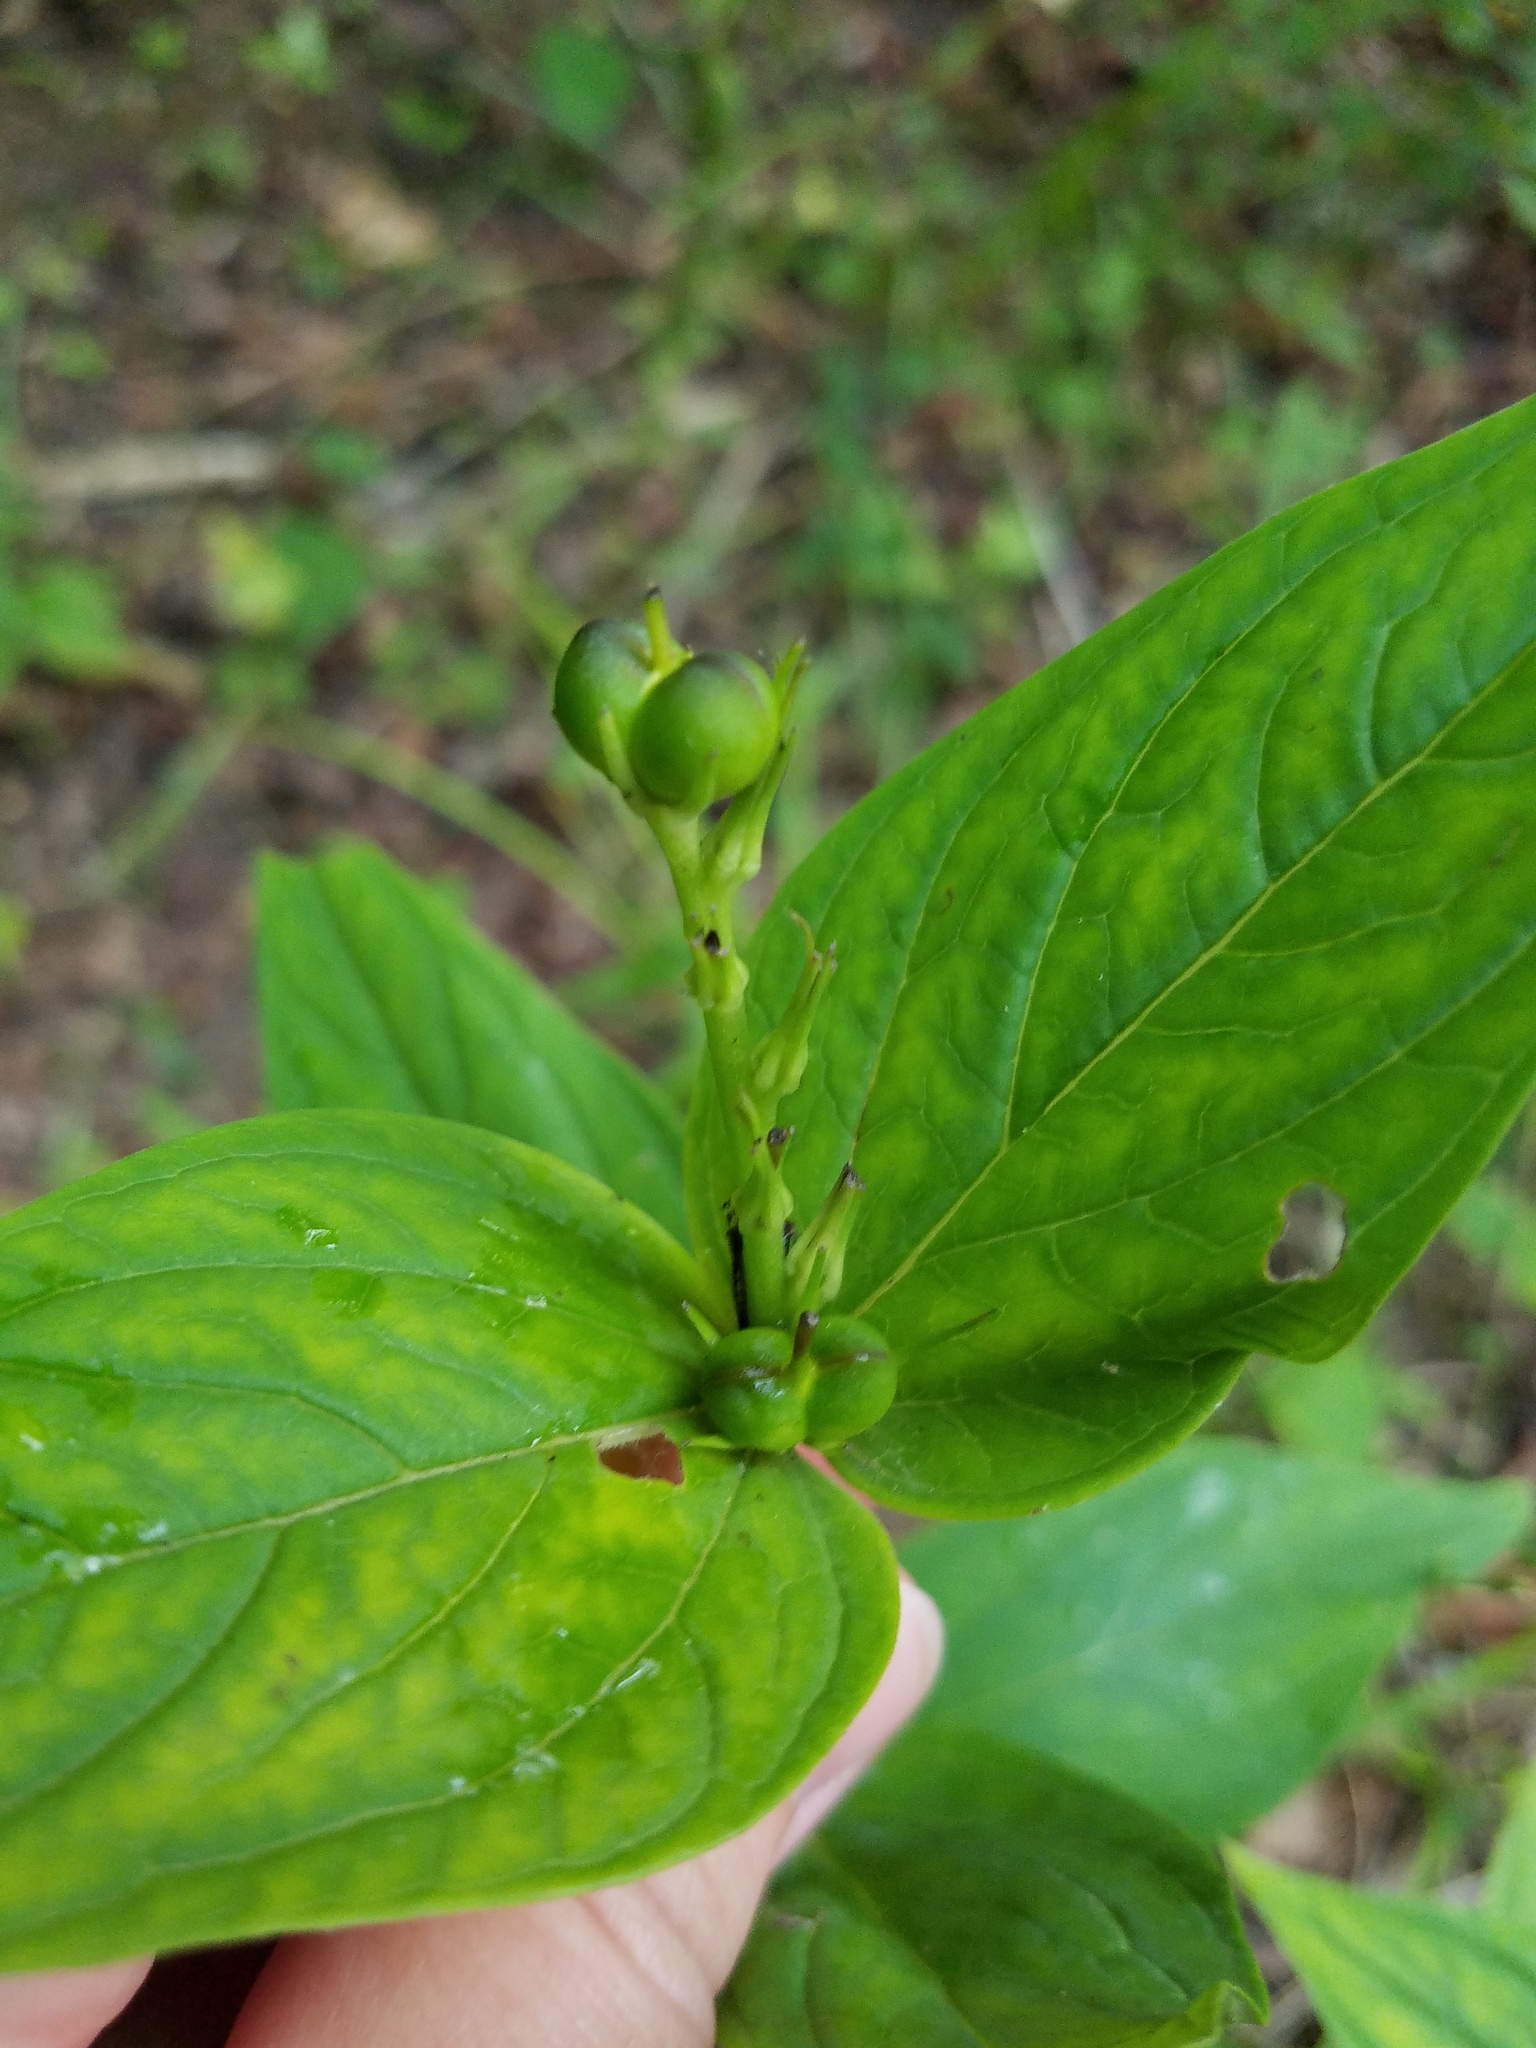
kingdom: Plantae
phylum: Tracheophyta
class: Magnoliopsida
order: Gentianales
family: Loganiaceae
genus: Spigelia
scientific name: Spigelia marilandica
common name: Indian-pink
